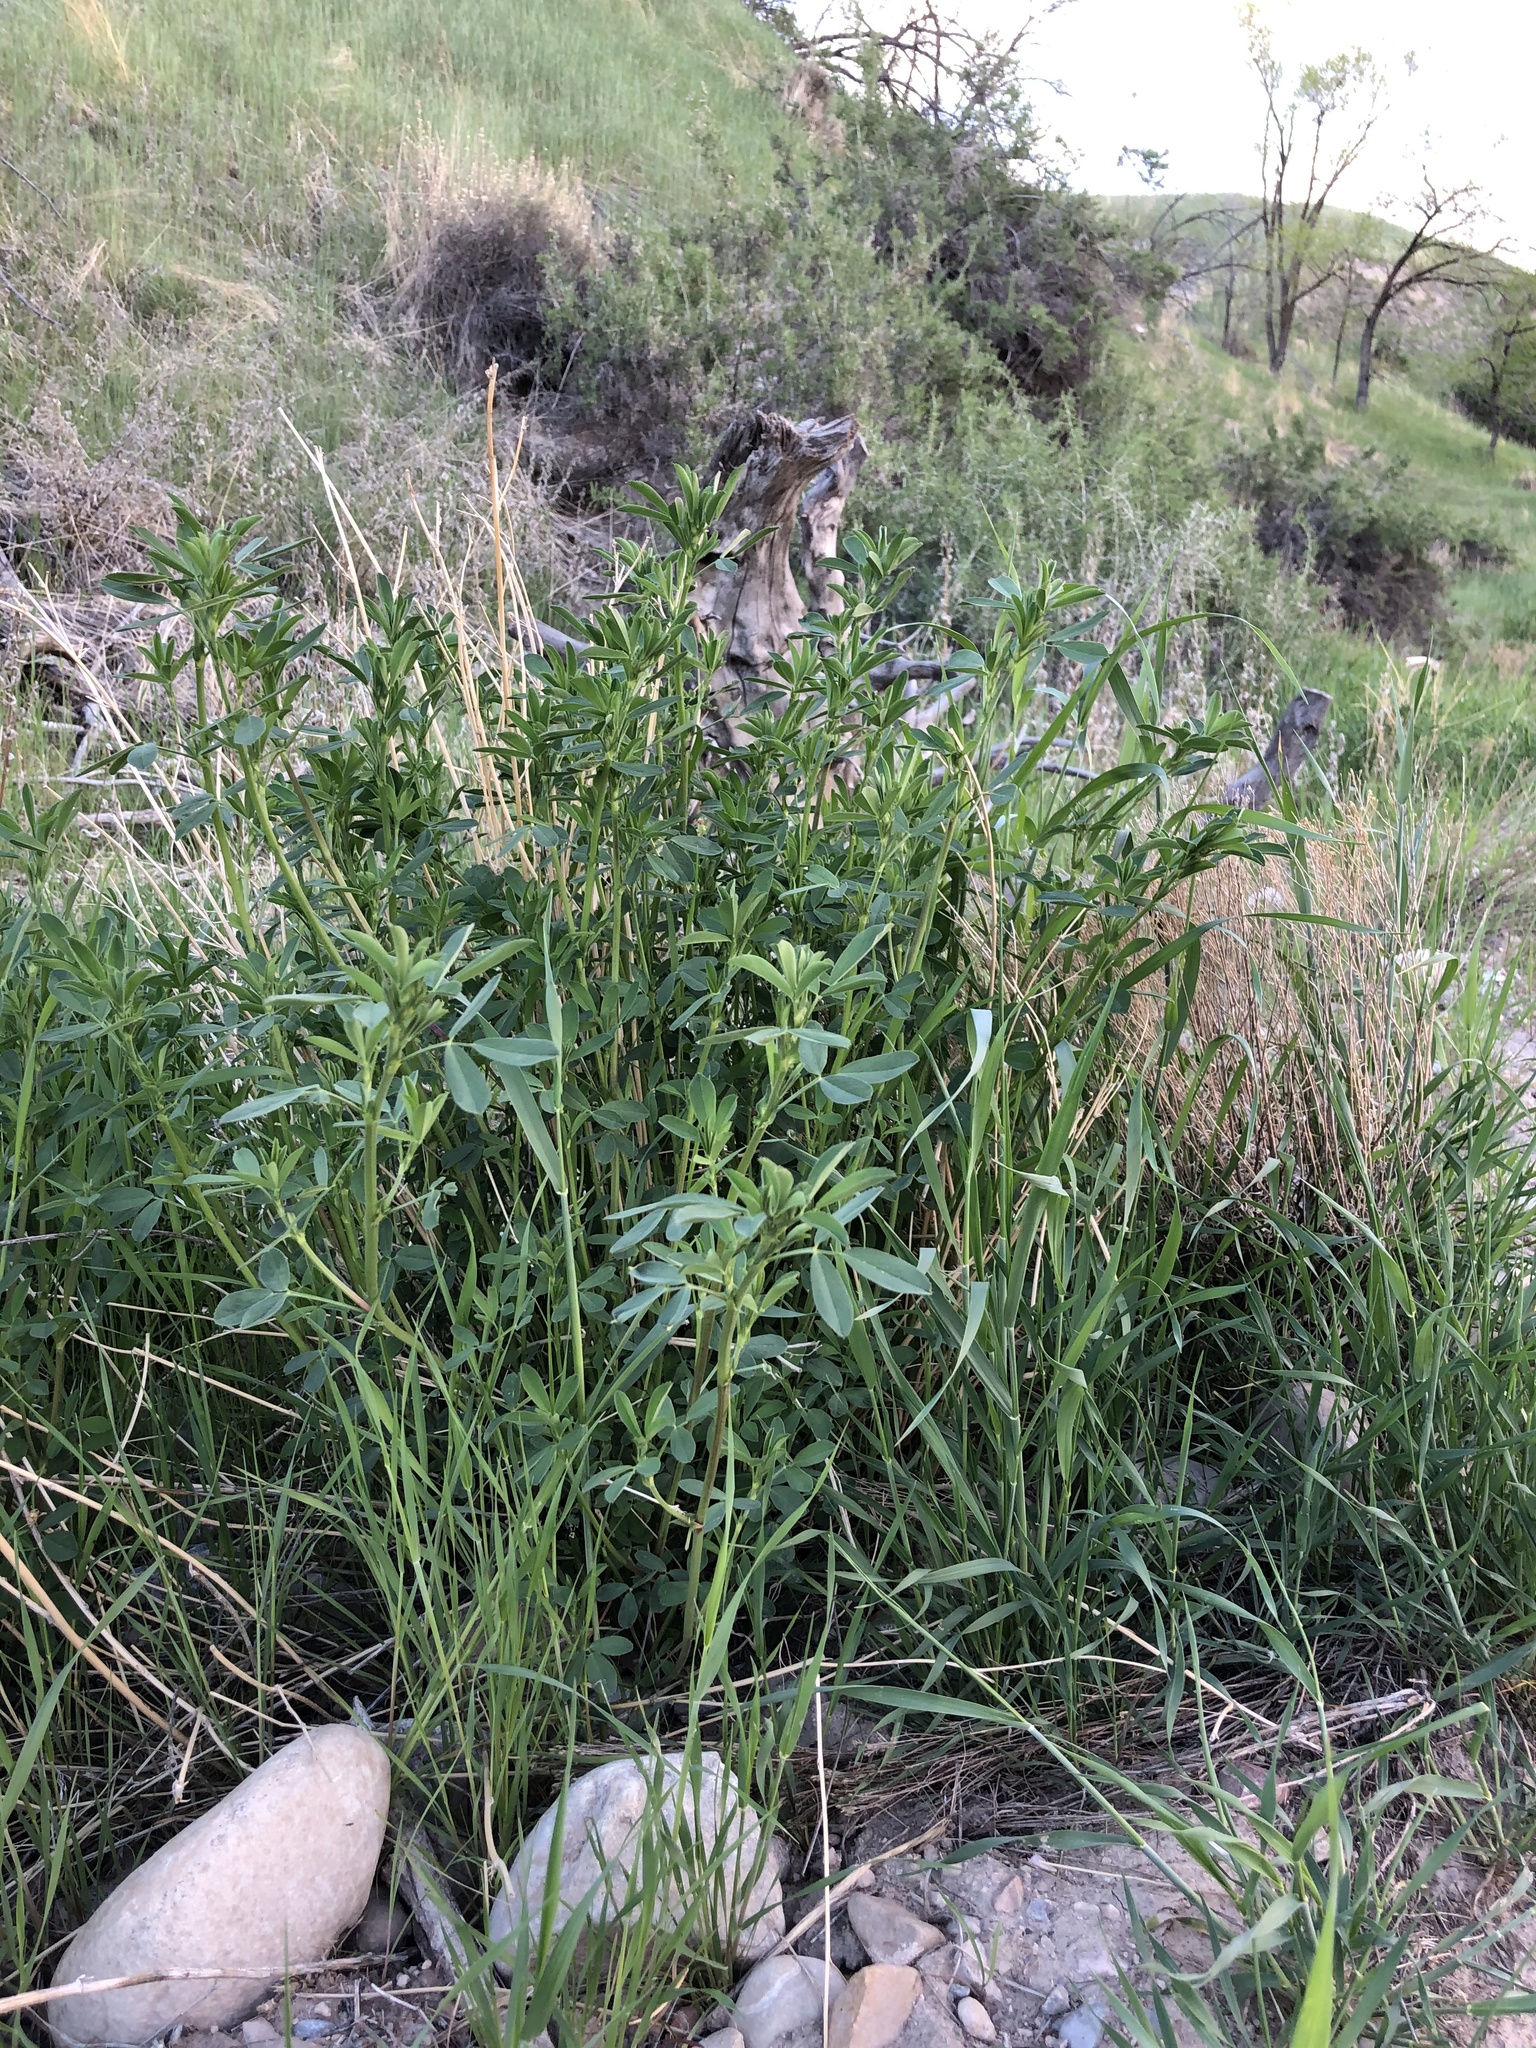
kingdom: Plantae
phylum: Tracheophyta
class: Magnoliopsida
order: Fabales
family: Fabaceae
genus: Medicago
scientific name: Medicago sativa
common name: Alfalfa
